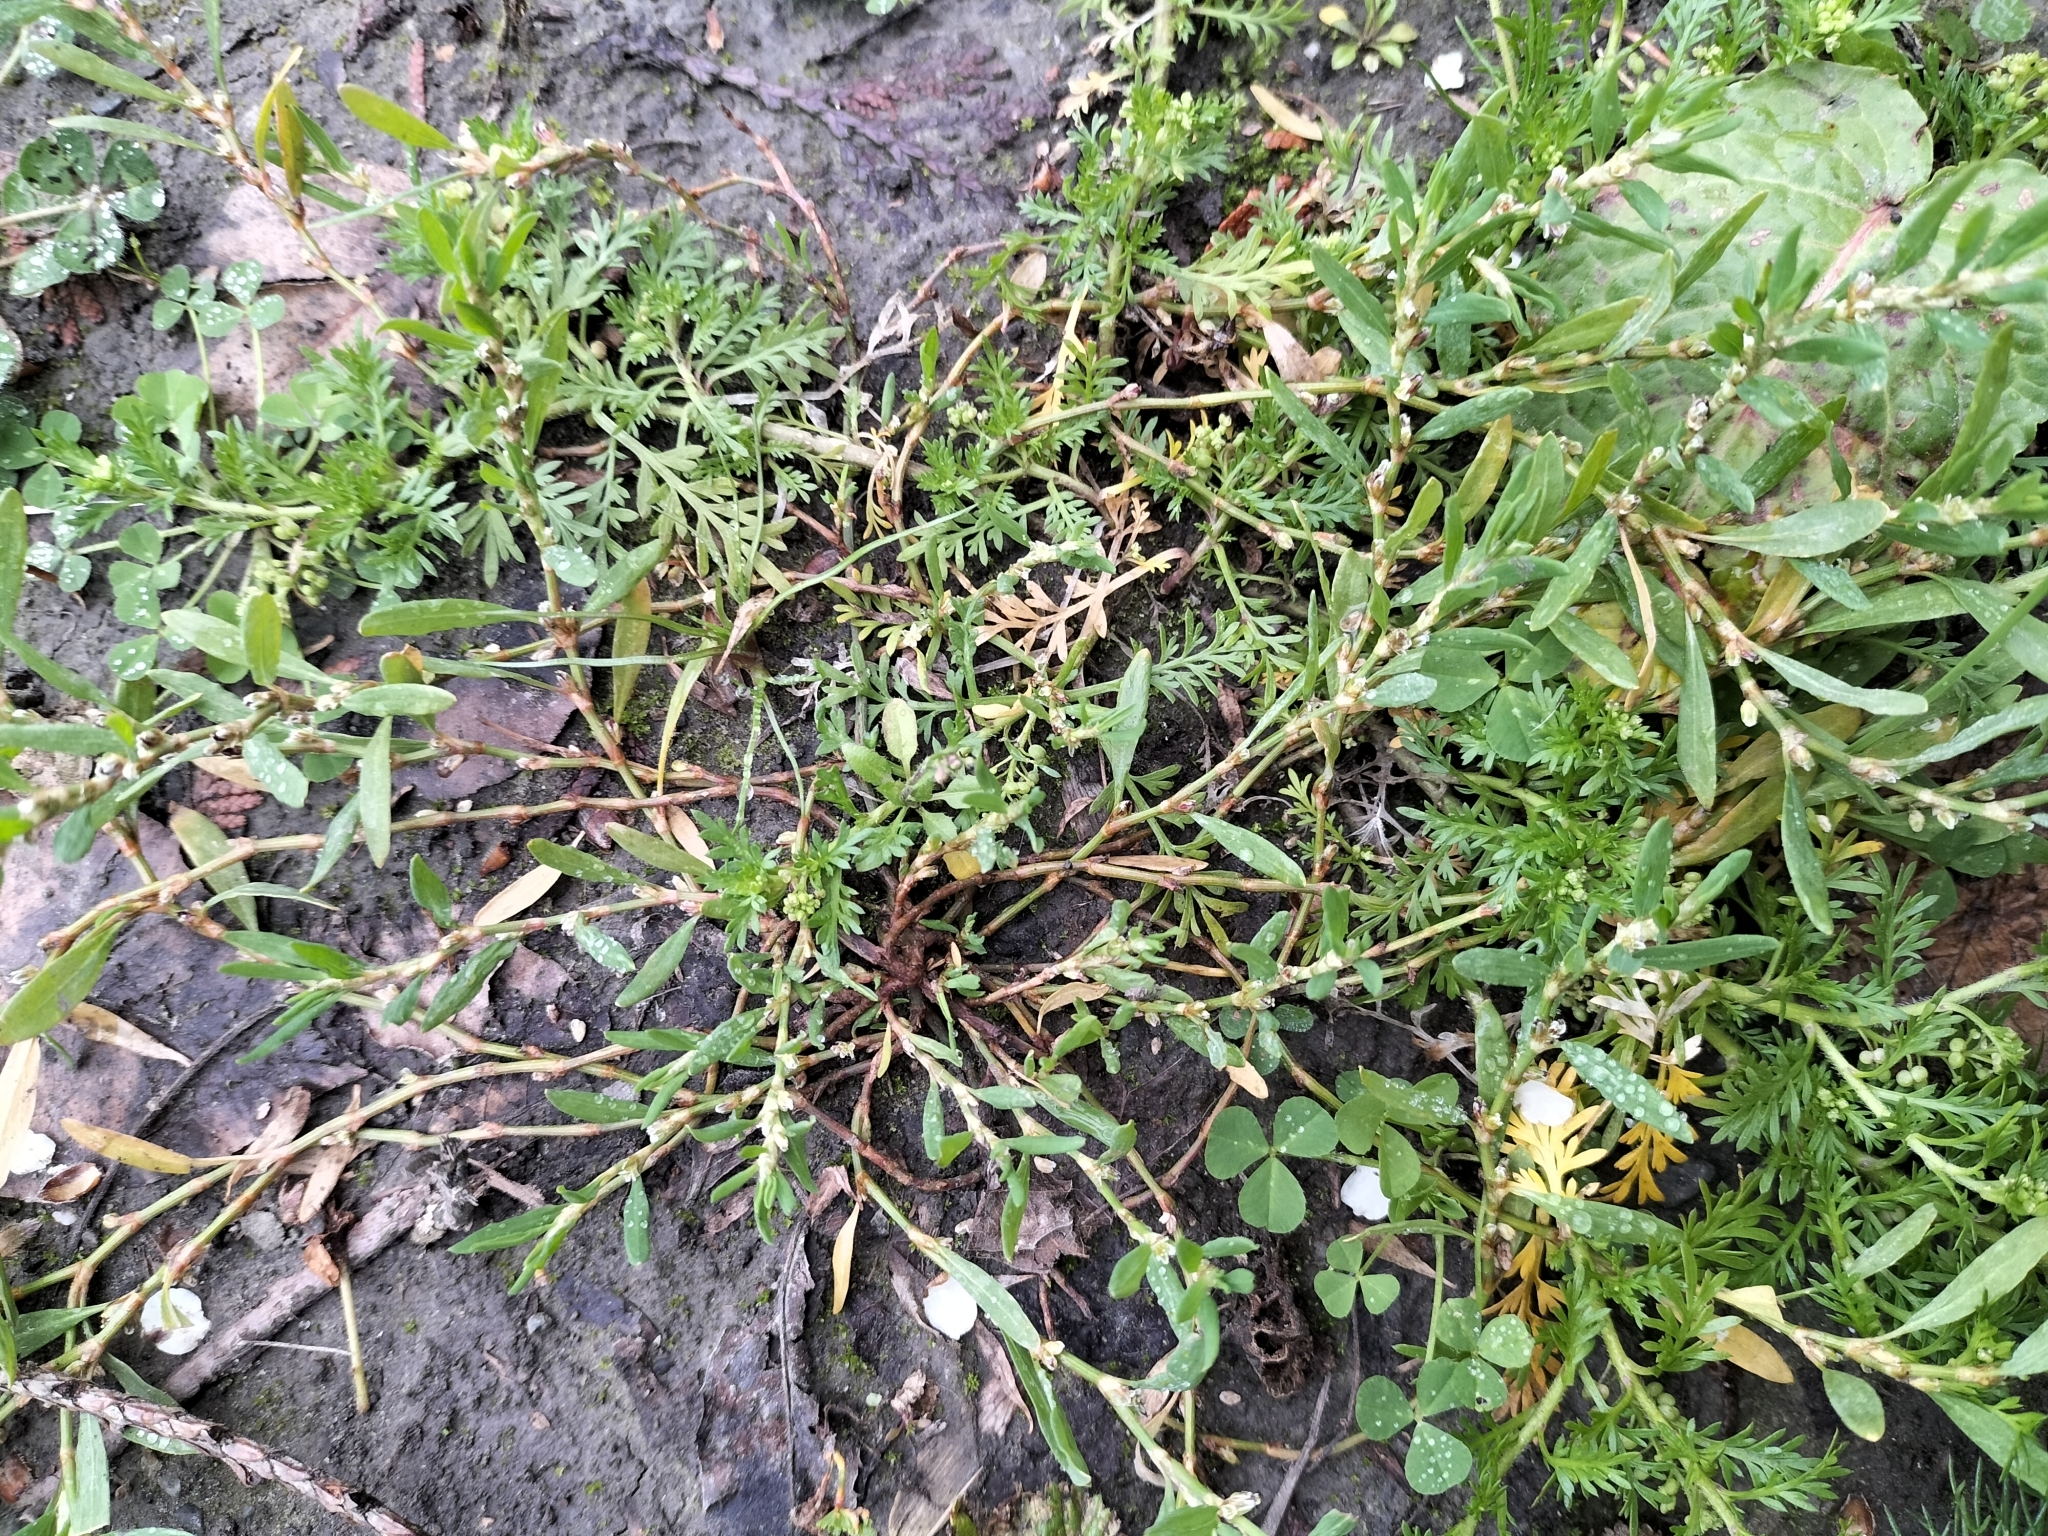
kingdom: Plantae
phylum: Tracheophyta
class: Magnoliopsida
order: Caryophyllales
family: Polygonaceae
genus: Polygonum
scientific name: Polygonum aviculare
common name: Prostrate knotweed
